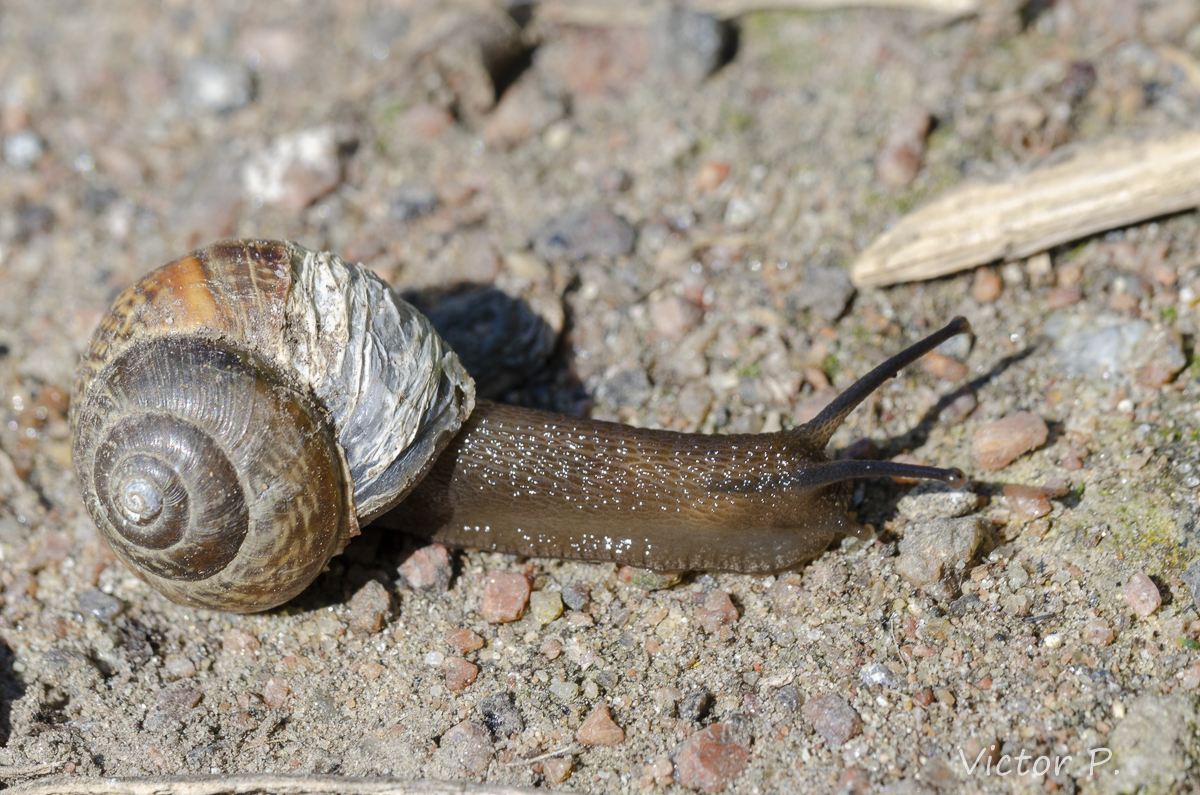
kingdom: Animalia
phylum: Mollusca
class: Gastropoda
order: Stylommatophora
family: Helicidae
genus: Arianta
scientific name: Arianta arbustorum
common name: Copse snail
